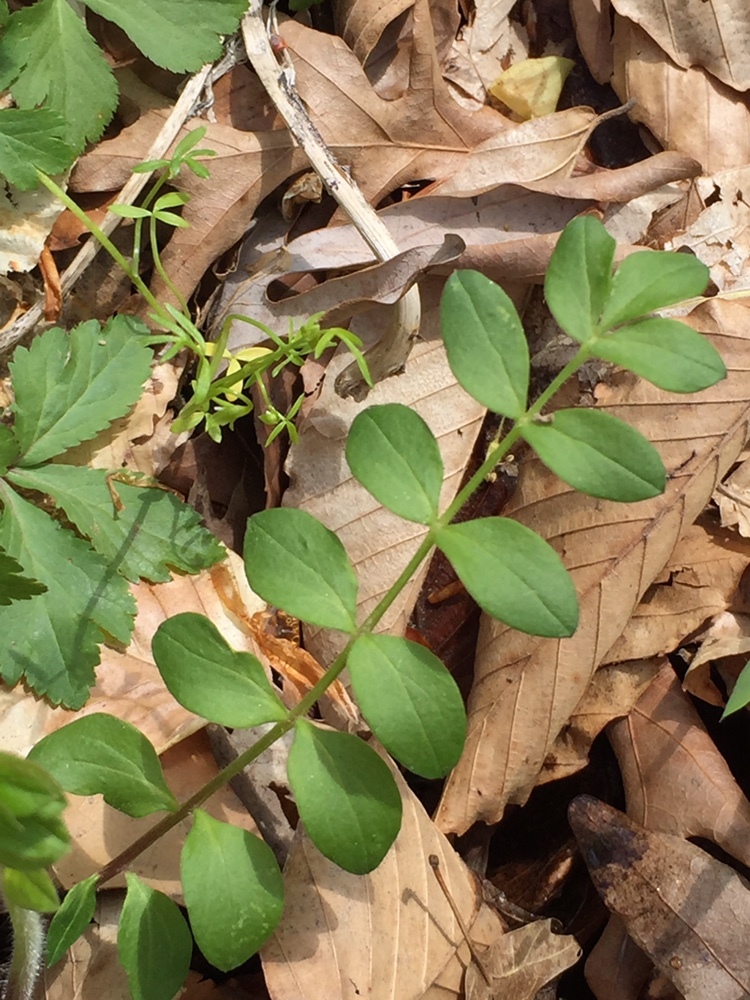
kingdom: Plantae
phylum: Tracheophyta
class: Magnoliopsida
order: Ericales
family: Polemoniaceae
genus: Polemonium
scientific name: Polemonium reptans
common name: Creeping jacob's-ladder
